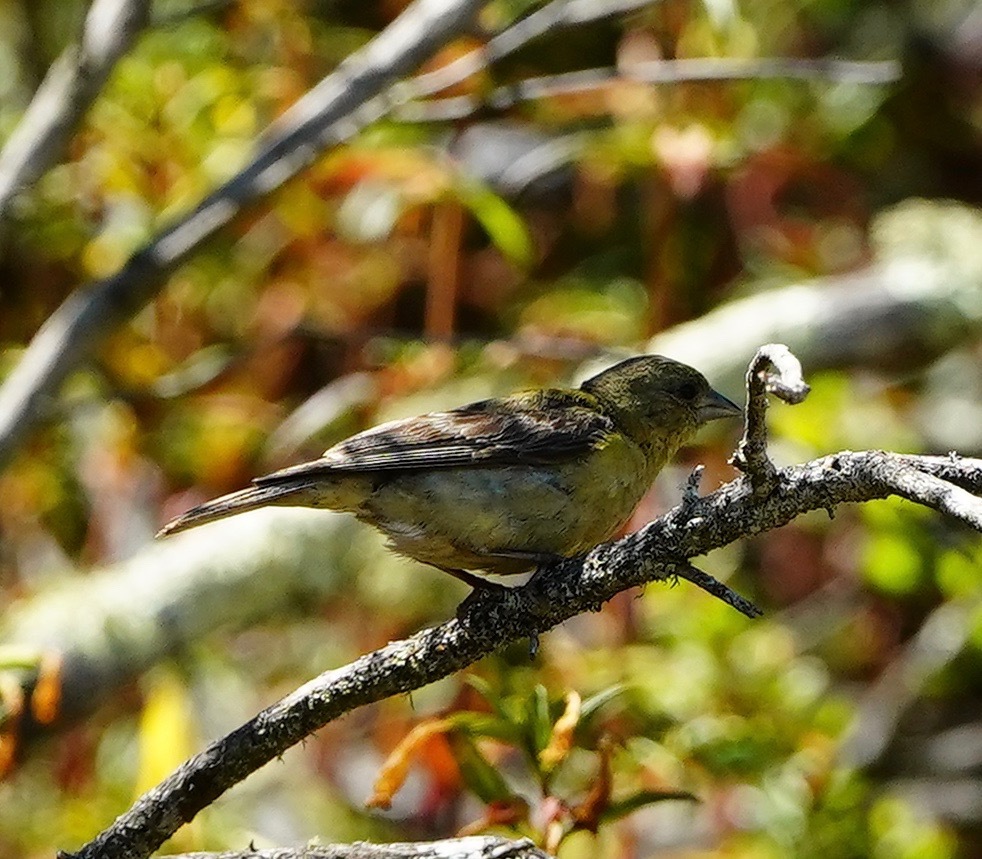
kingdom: Animalia
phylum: Chordata
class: Aves
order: Passeriformes
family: Fringillidae
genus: Spinus
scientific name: Spinus psaltria
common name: Lesser goldfinch
